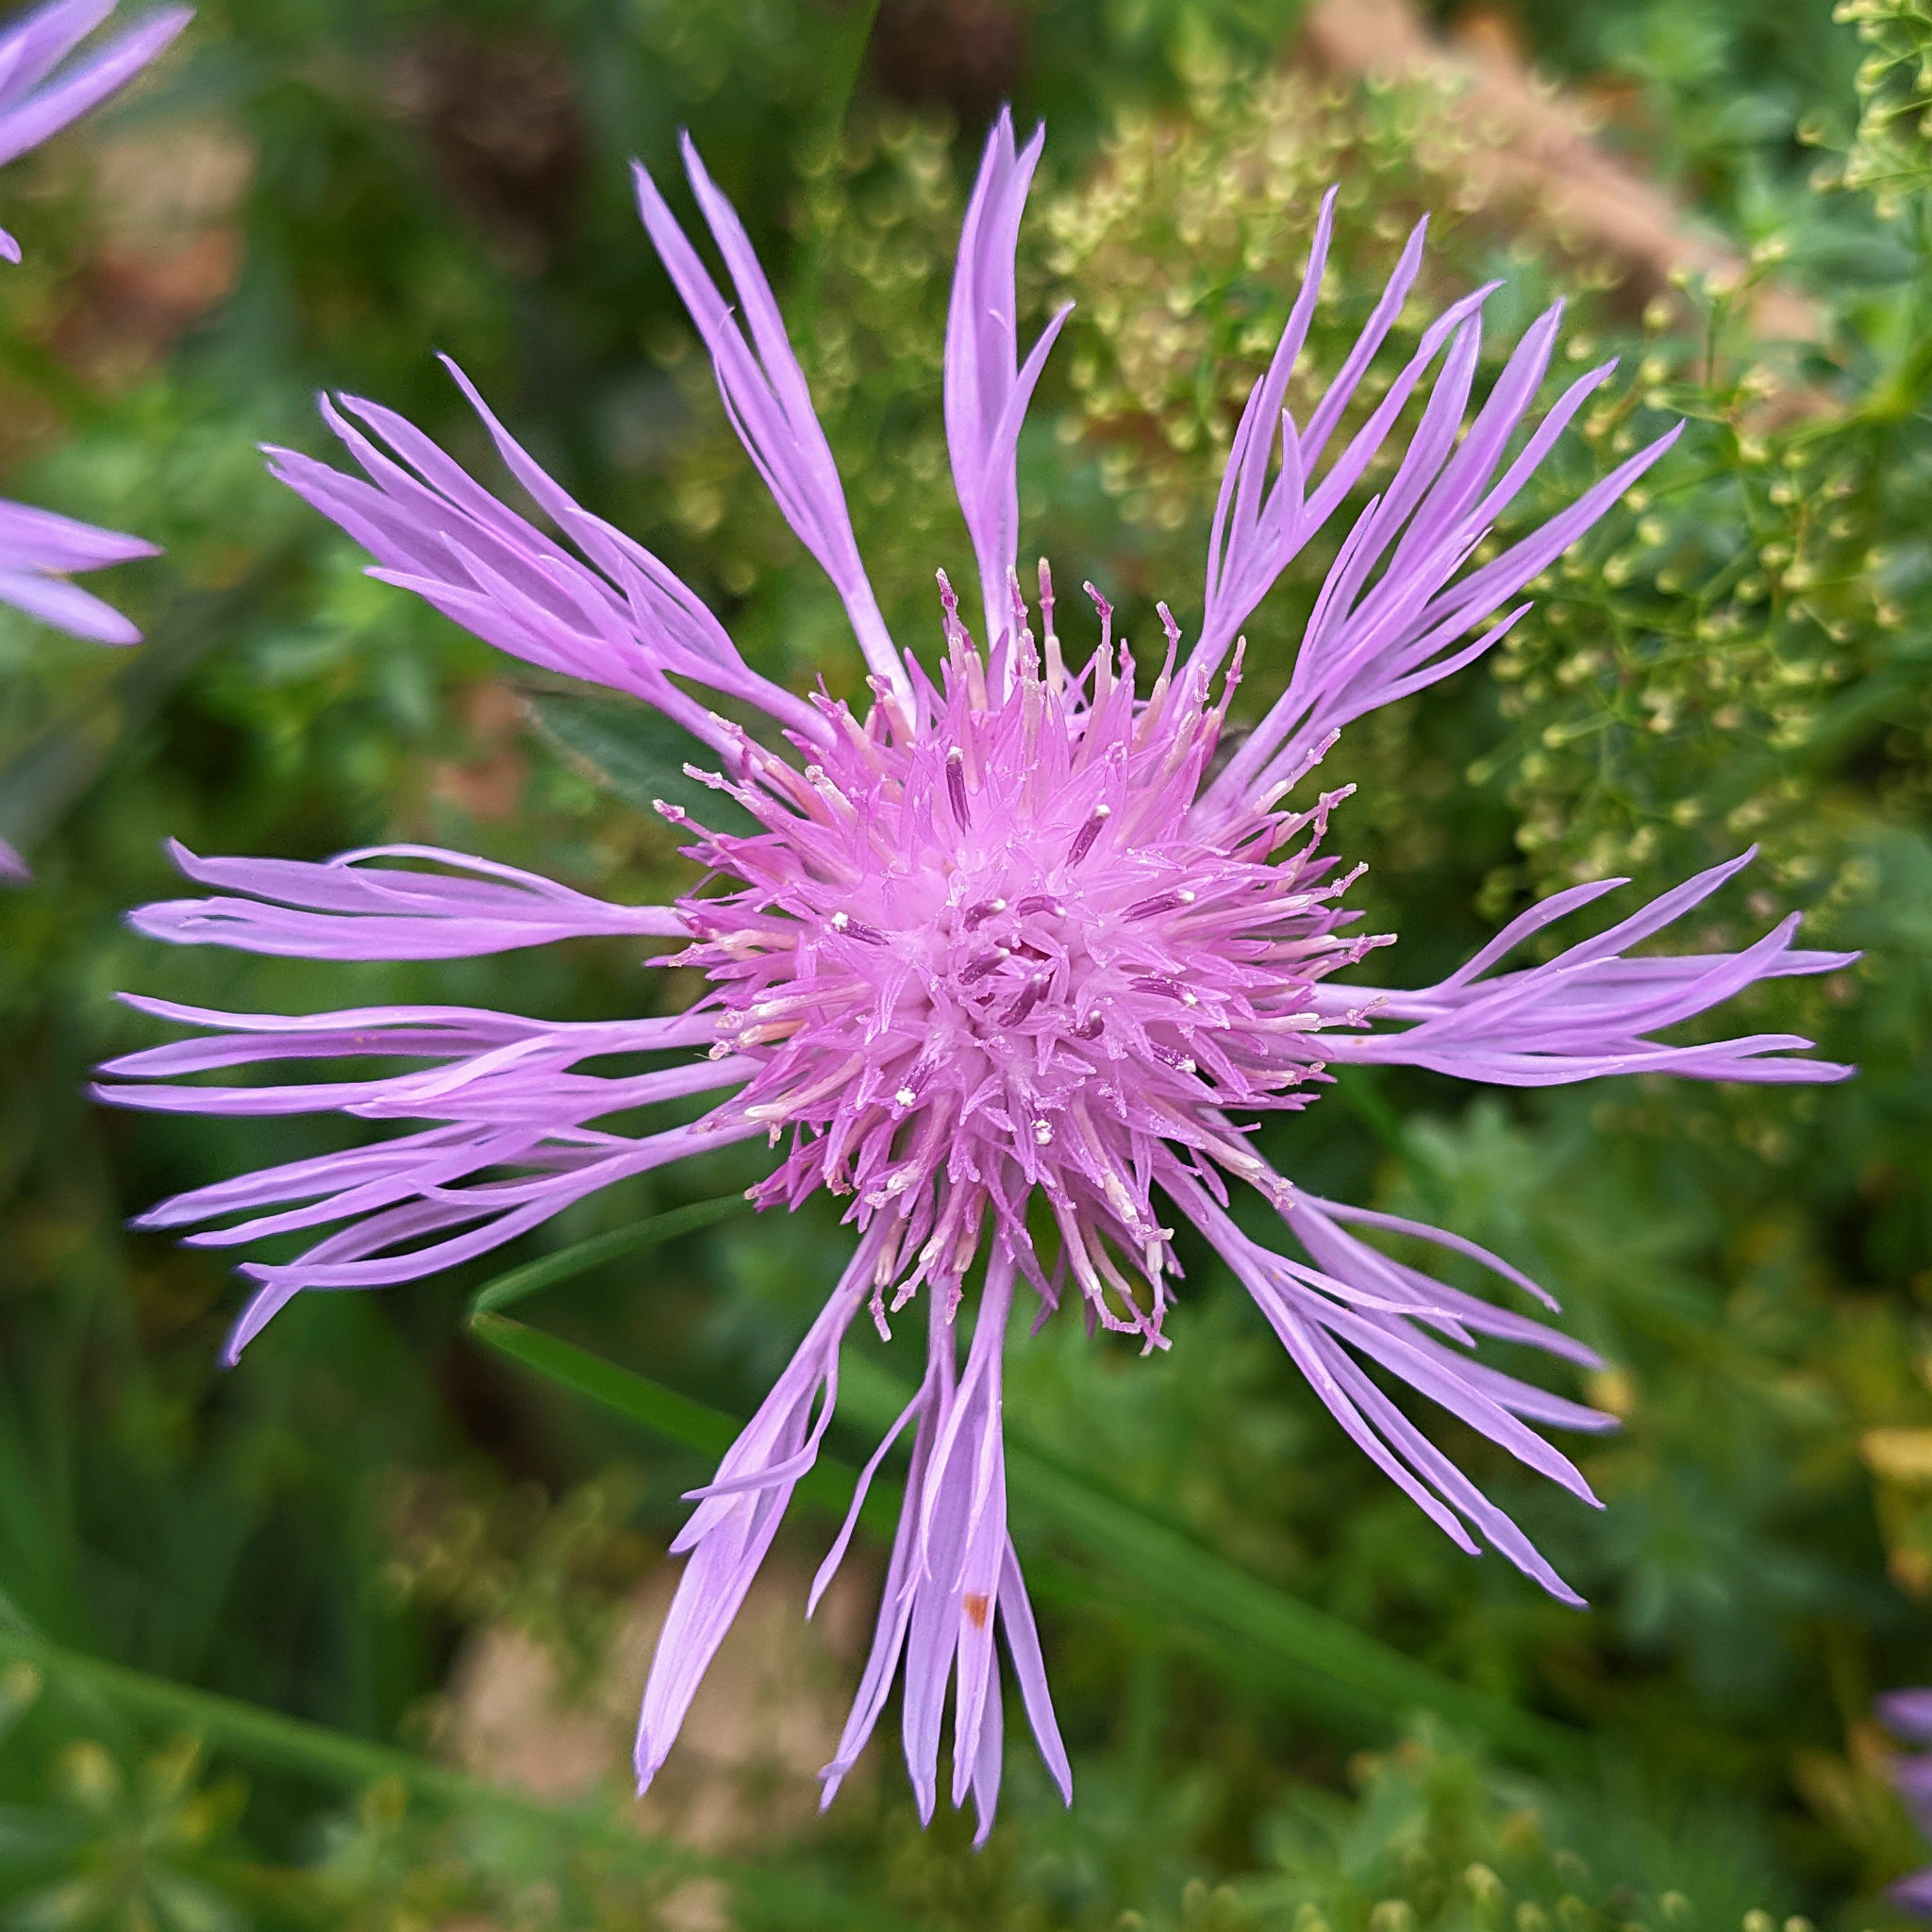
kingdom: Plantae
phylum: Tracheophyta
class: Magnoliopsida
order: Asterales
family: Asteraceae
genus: Centaurea
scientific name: Centaurea jacea
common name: Brown knapweed
